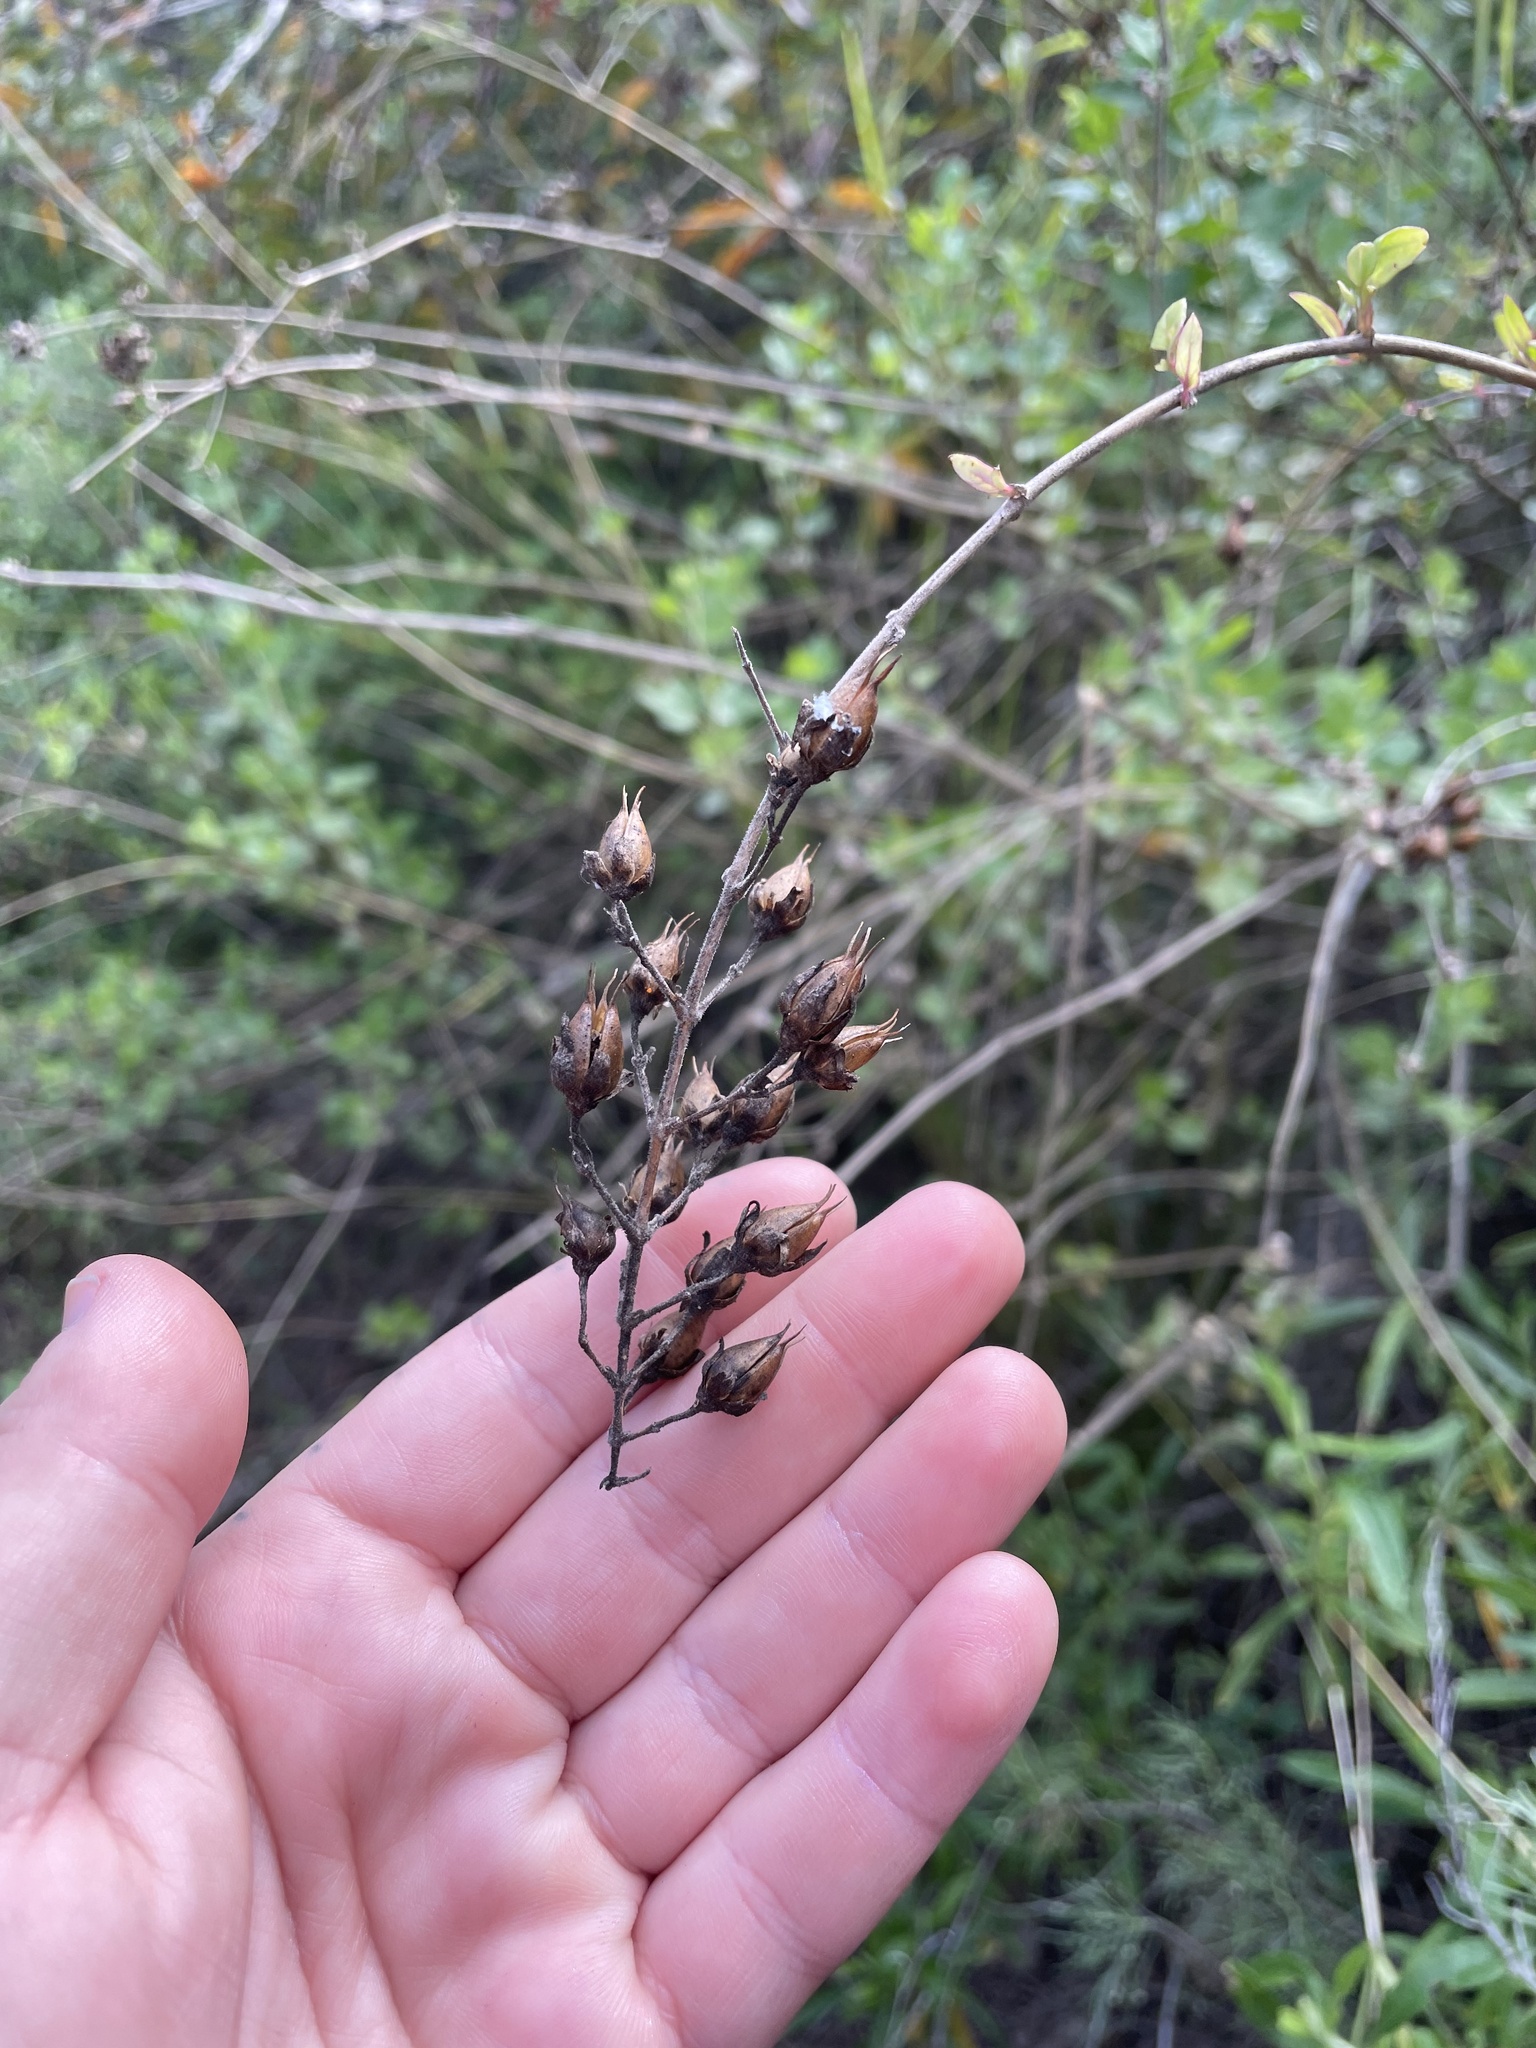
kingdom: Plantae
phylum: Tracheophyta
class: Magnoliopsida
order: Lamiales
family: Plantaginaceae
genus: Keckiella
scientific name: Keckiella cordifolia
